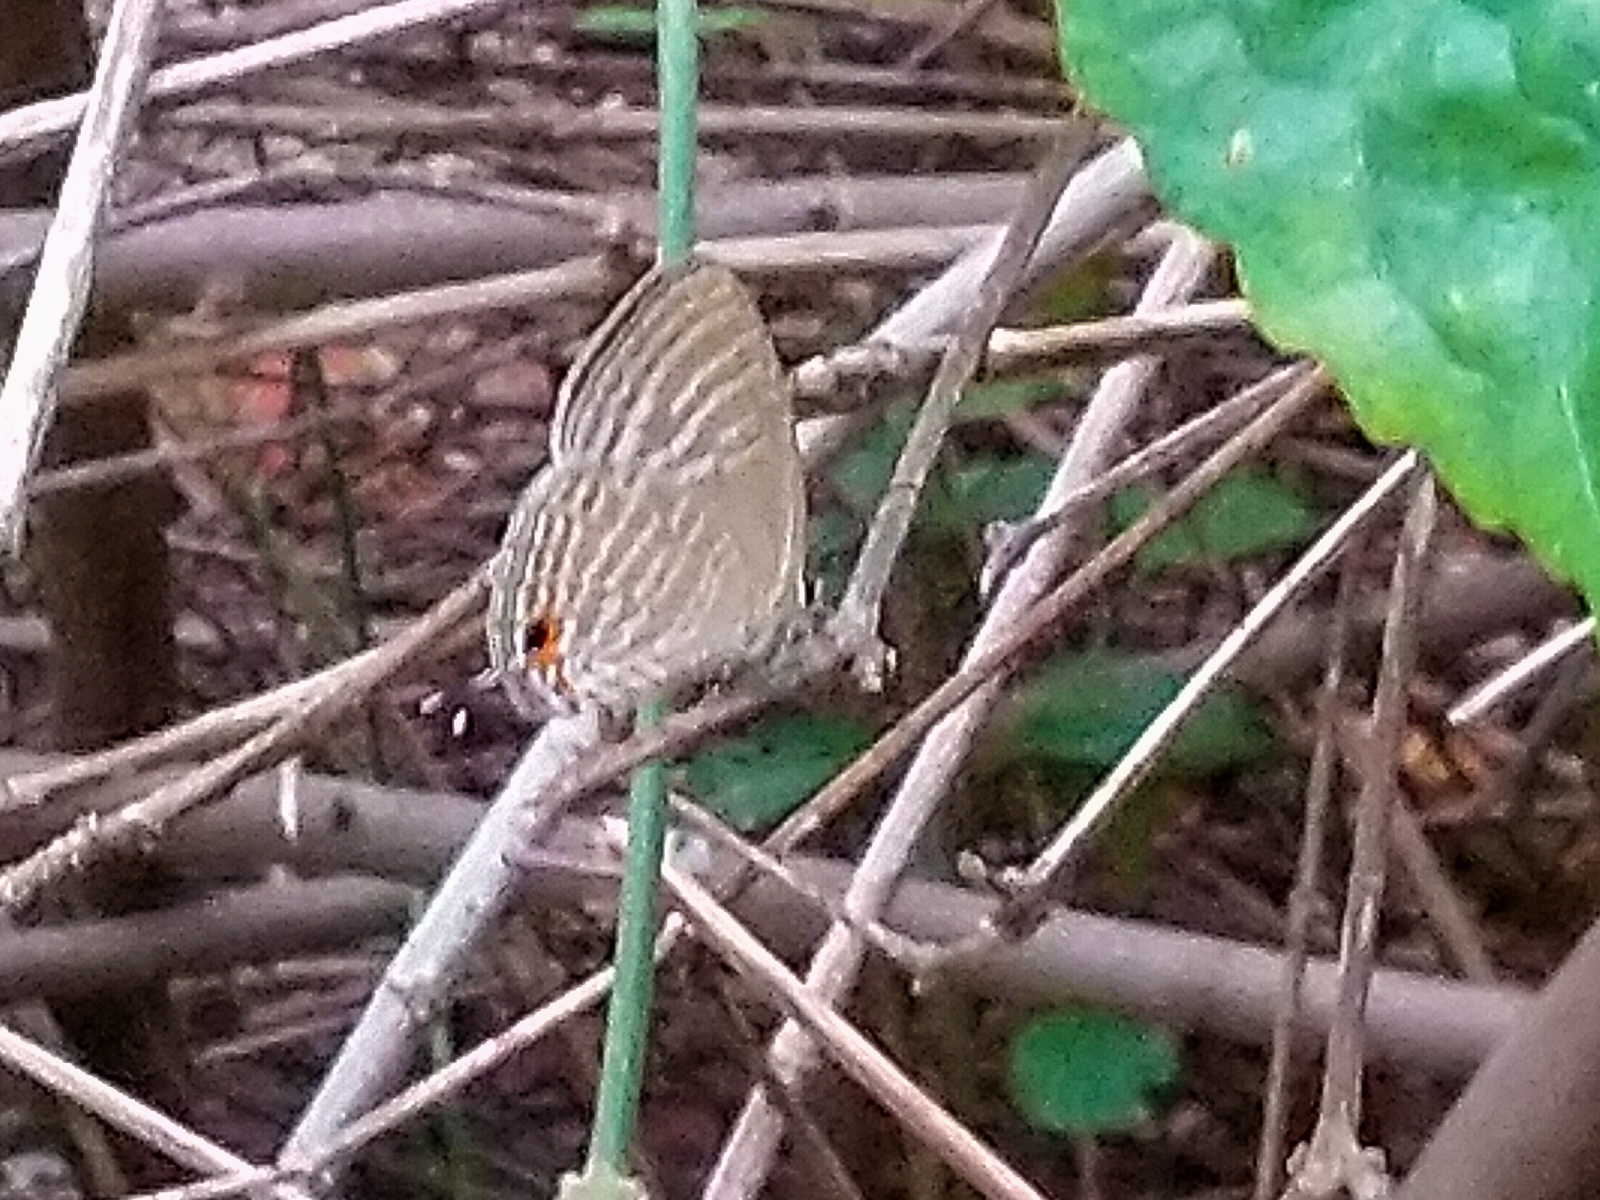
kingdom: Animalia
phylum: Arthropoda
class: Insecta
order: Lepidoptera
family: Lycaenidae
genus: Jamides
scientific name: Jamides celeno
